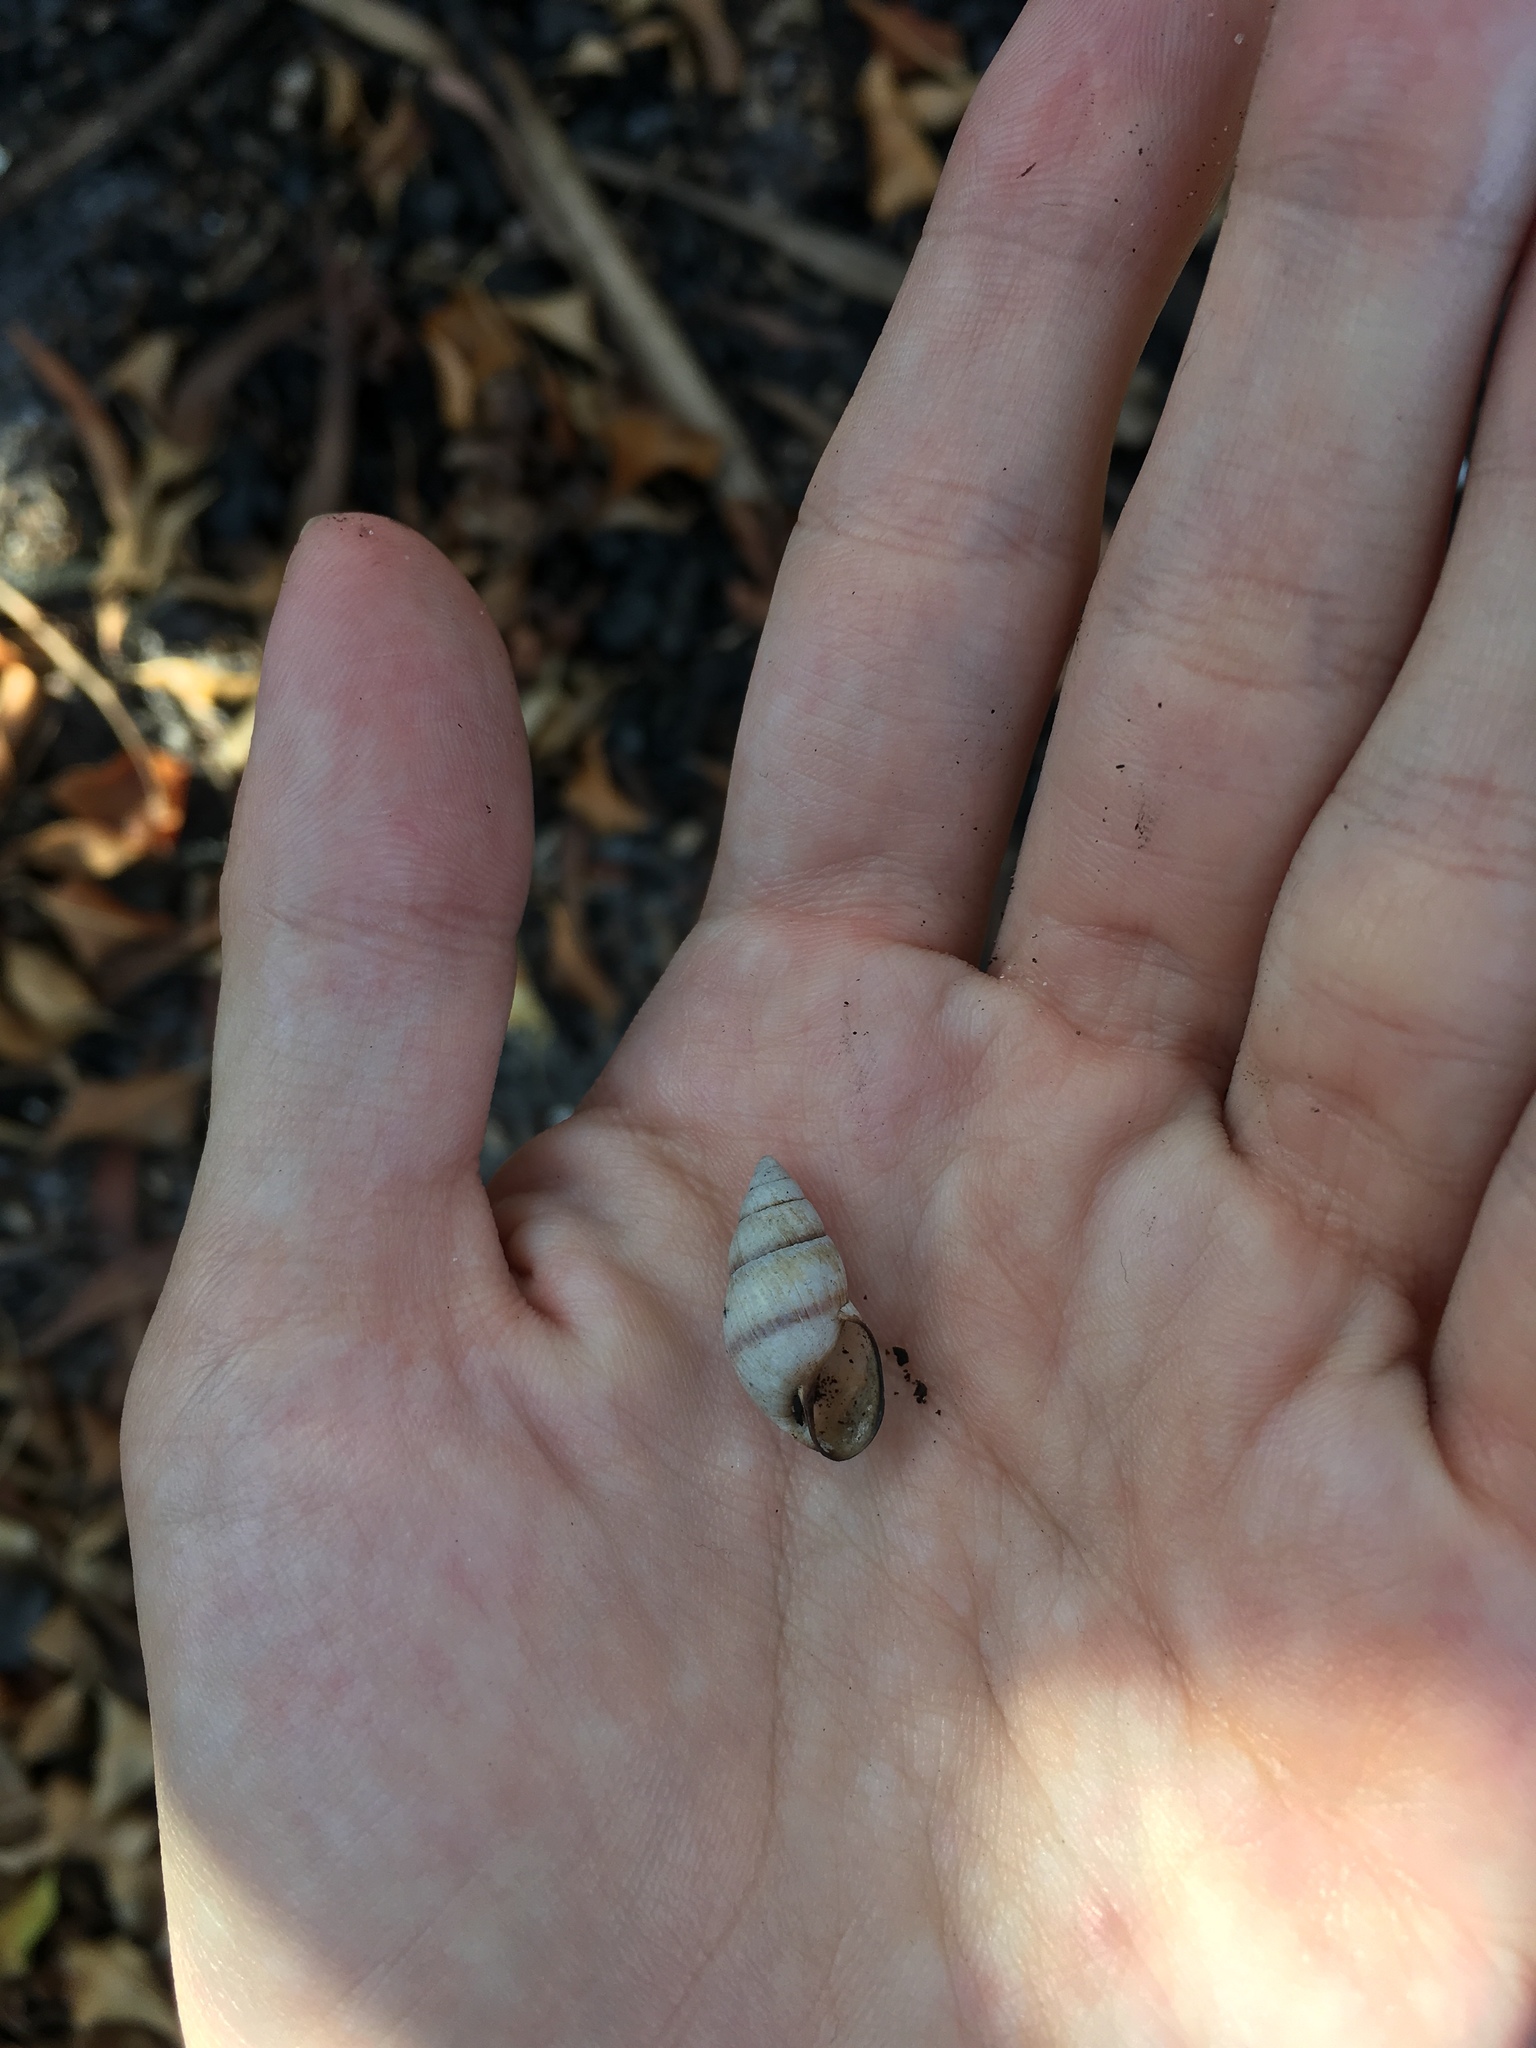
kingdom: Animalia
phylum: Mollusca
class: Gastropoda
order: Stylommatophora
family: Bulimulidae
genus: Bulimulus
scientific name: Bulimulus guadalupensis
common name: West indian bulimulus
